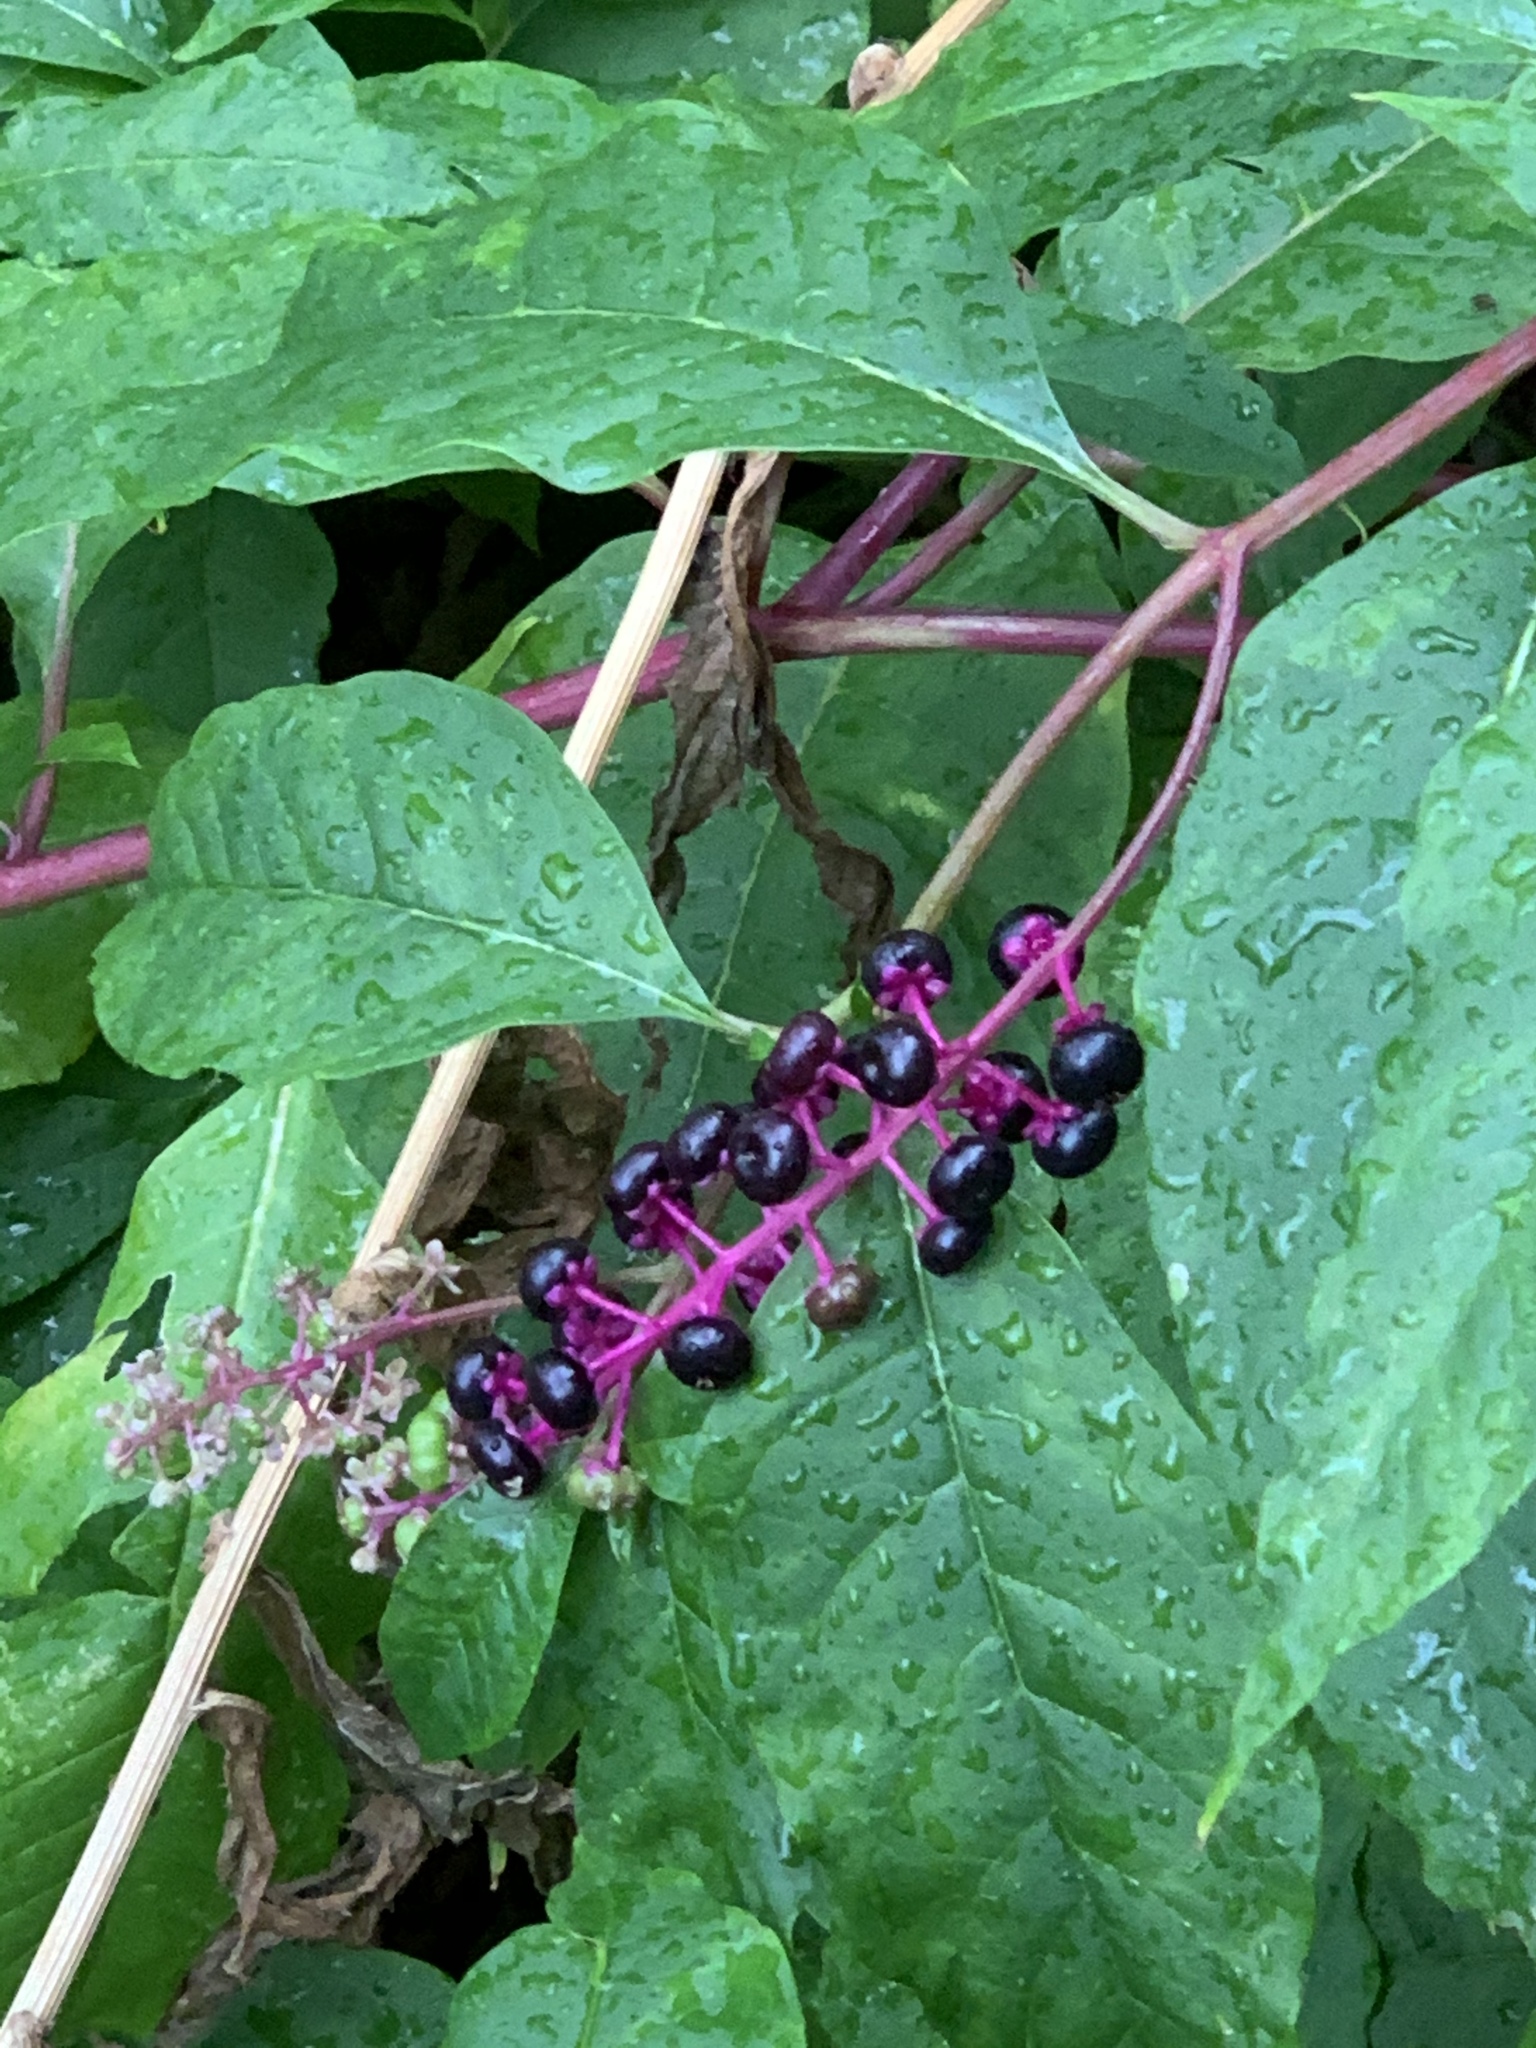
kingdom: Plantae
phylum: Tracheophyta
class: Magnoliopsida
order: Caryophyllales
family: Phytolaccaceae
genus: Phytolacca
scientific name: Phytolacca americana
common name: American pokeweed
